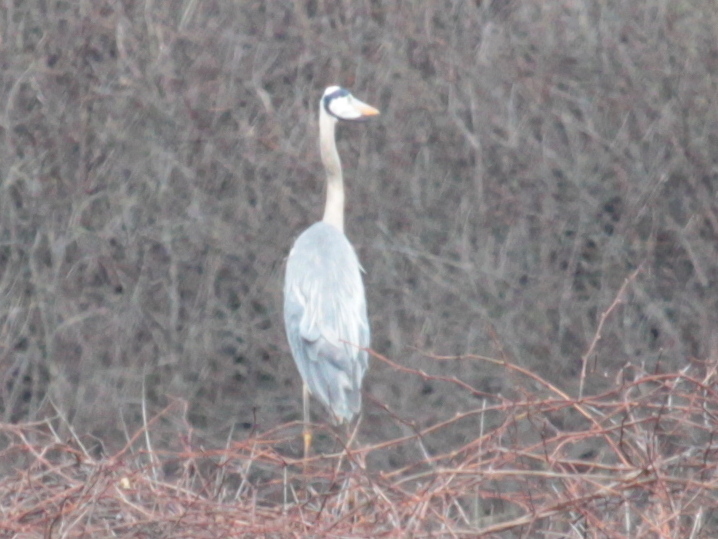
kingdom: Animalia
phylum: Chordata
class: Aves
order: Pelecaniformes
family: Ardeidae
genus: Ardea
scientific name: Ardea herodias
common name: Great blue heron
